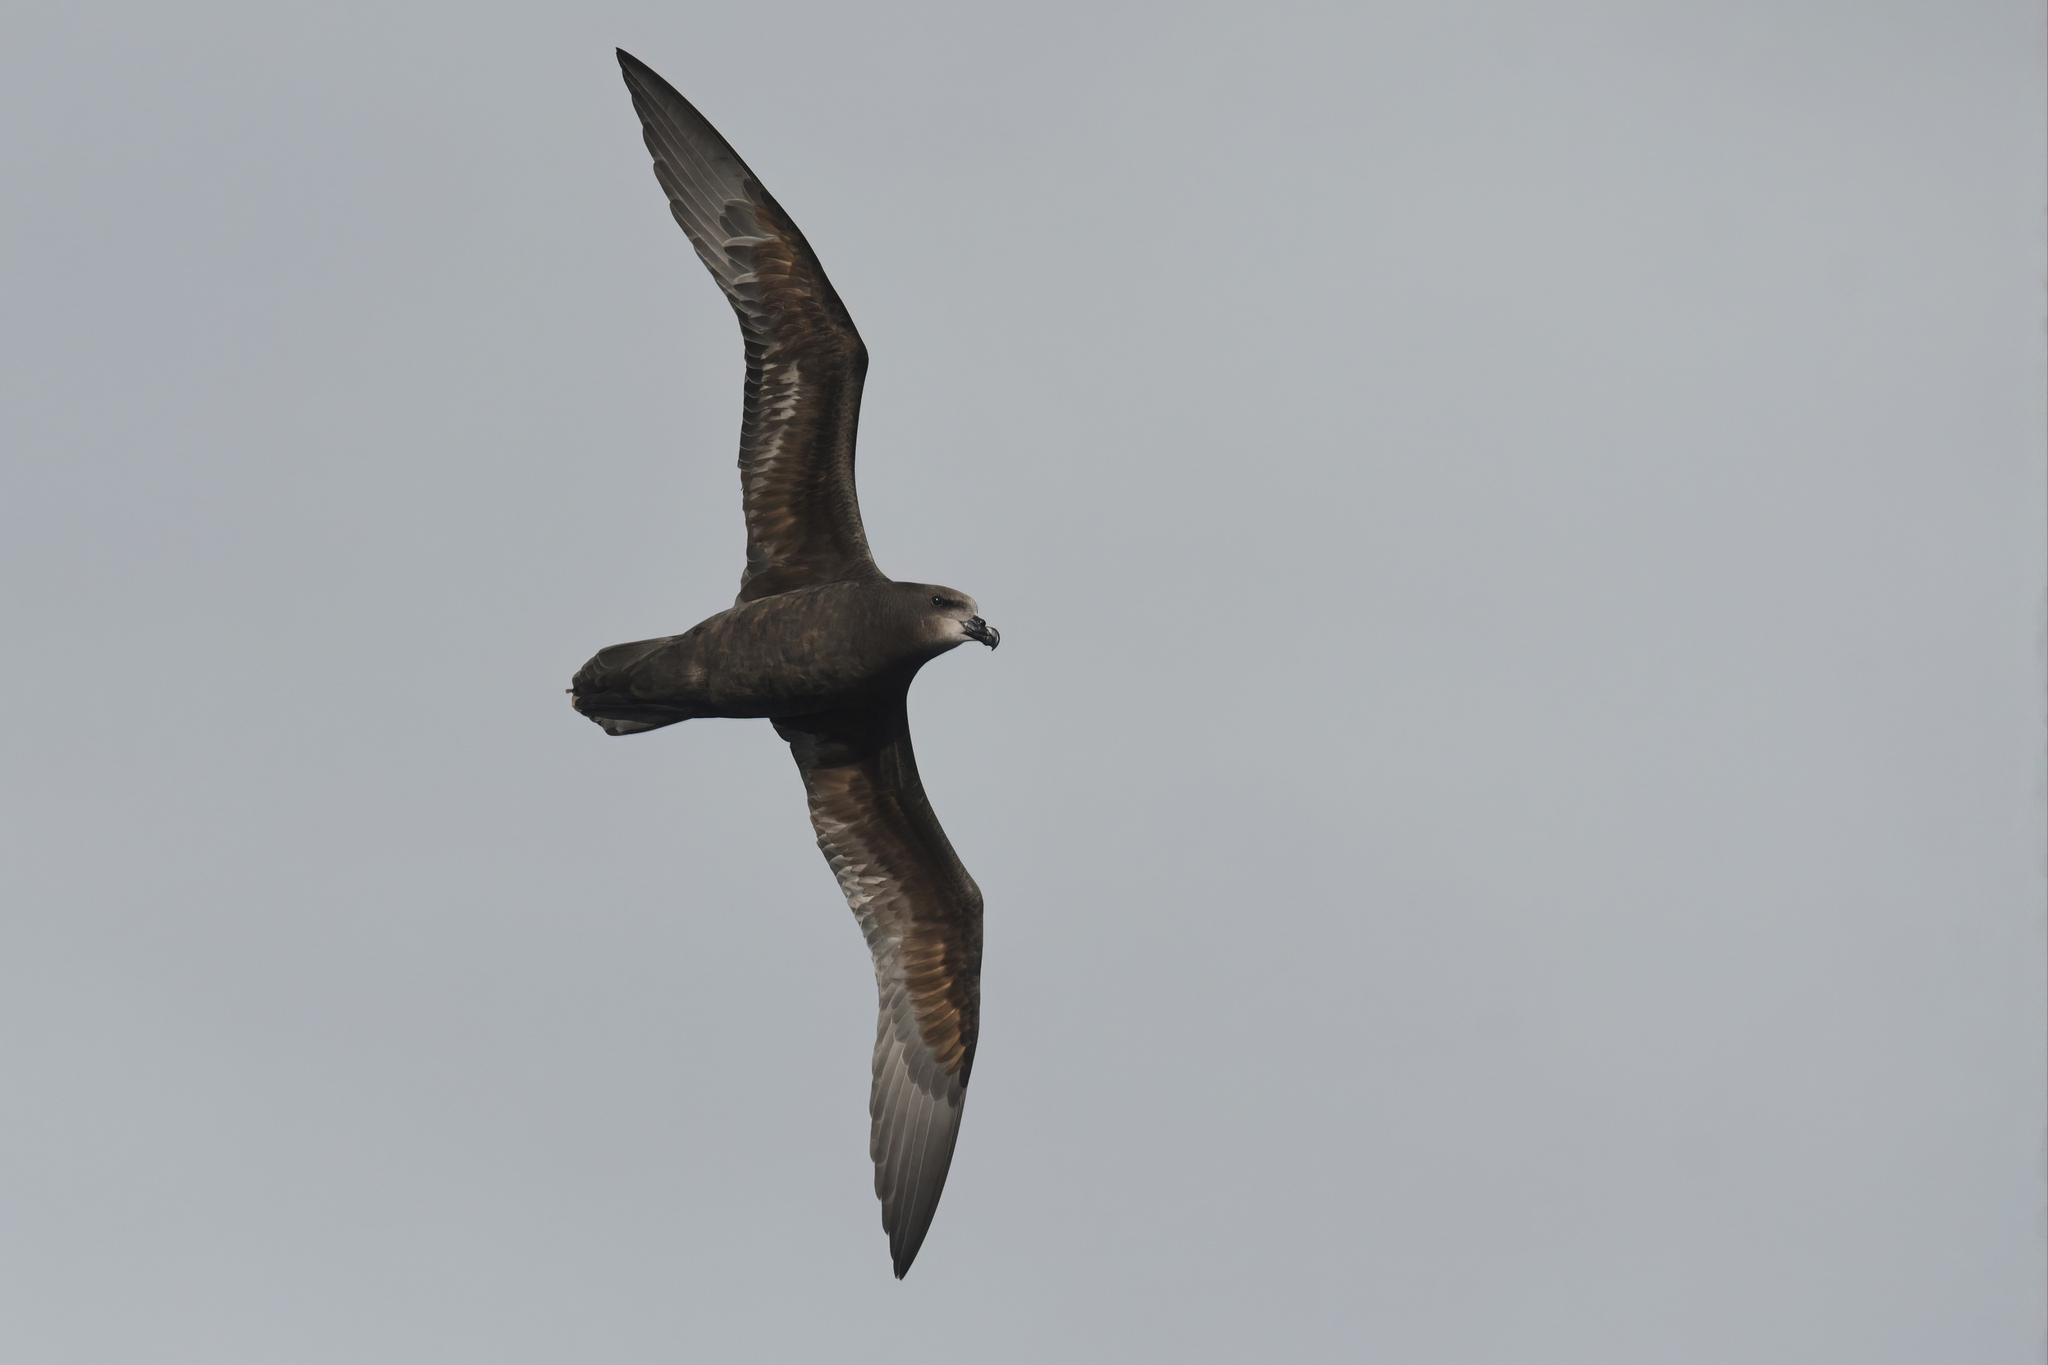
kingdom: Animalia
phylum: Chordata
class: Aves
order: Procellariiformes
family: Procellariidae
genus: Pterodroma
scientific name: Pterodroma macroptera
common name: Great-winged petrel
